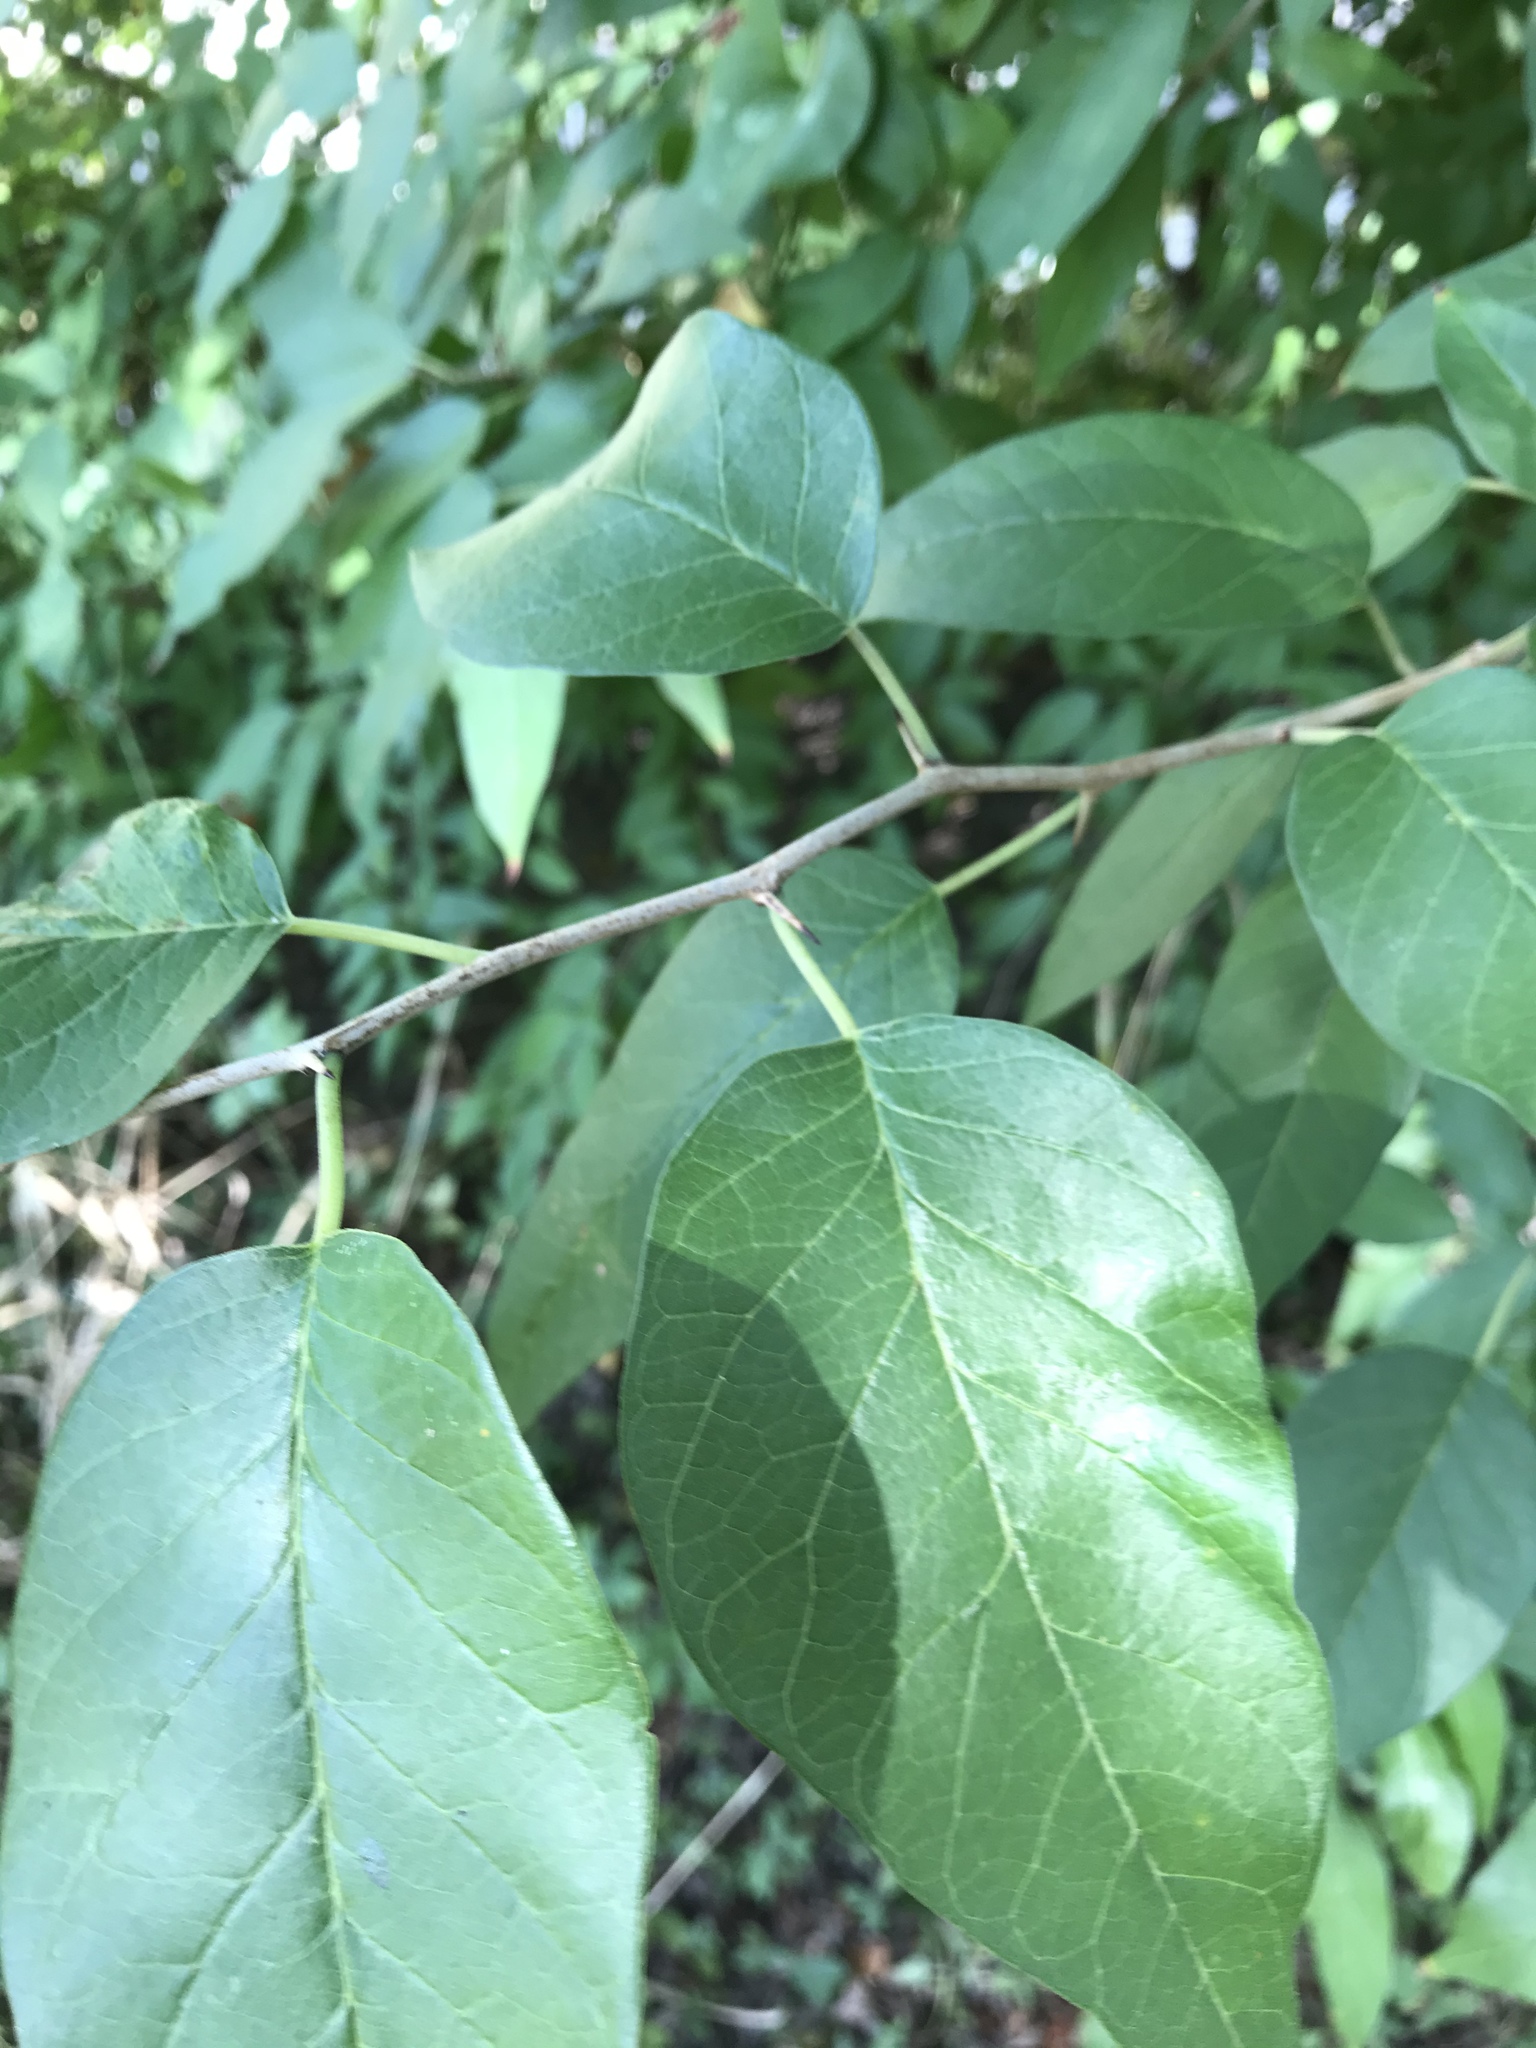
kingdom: Plantae
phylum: Tracheophyta
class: Magnoliopsida
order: Rosales
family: Moraceae
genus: Maclura
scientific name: Maclura pomifera
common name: Osage-orange
